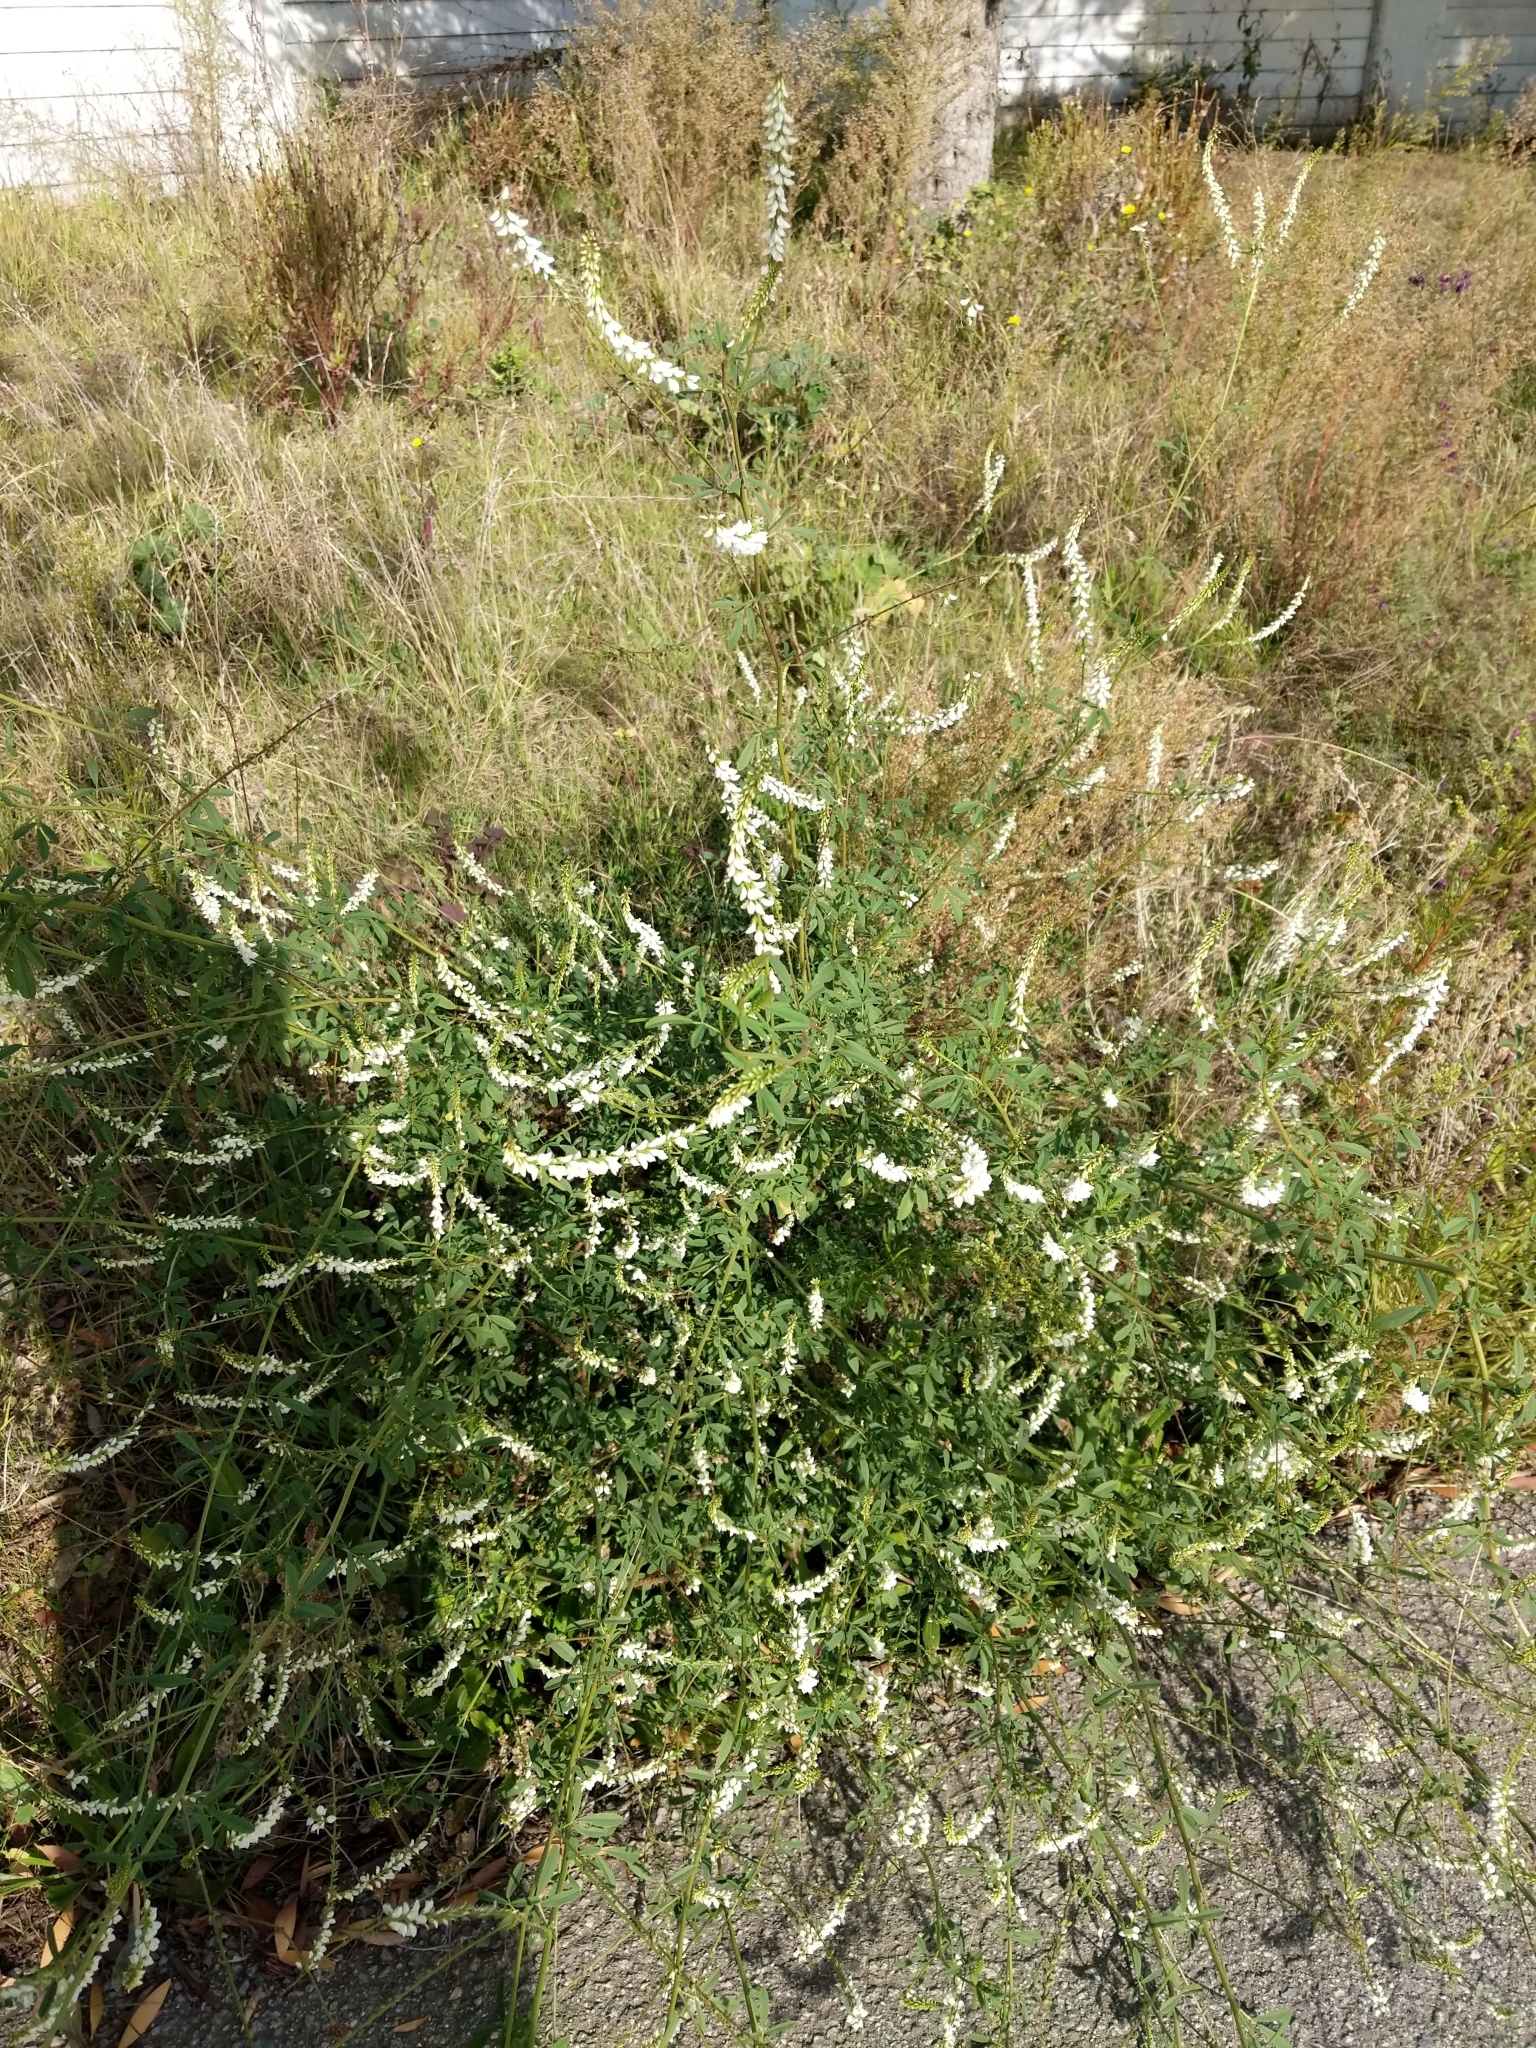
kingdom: Plantae
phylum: Tracheophyta
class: Magnoliopsida
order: Fabales
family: Fabaceae
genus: Melilotus
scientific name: Melilotus albus
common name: White melilot
